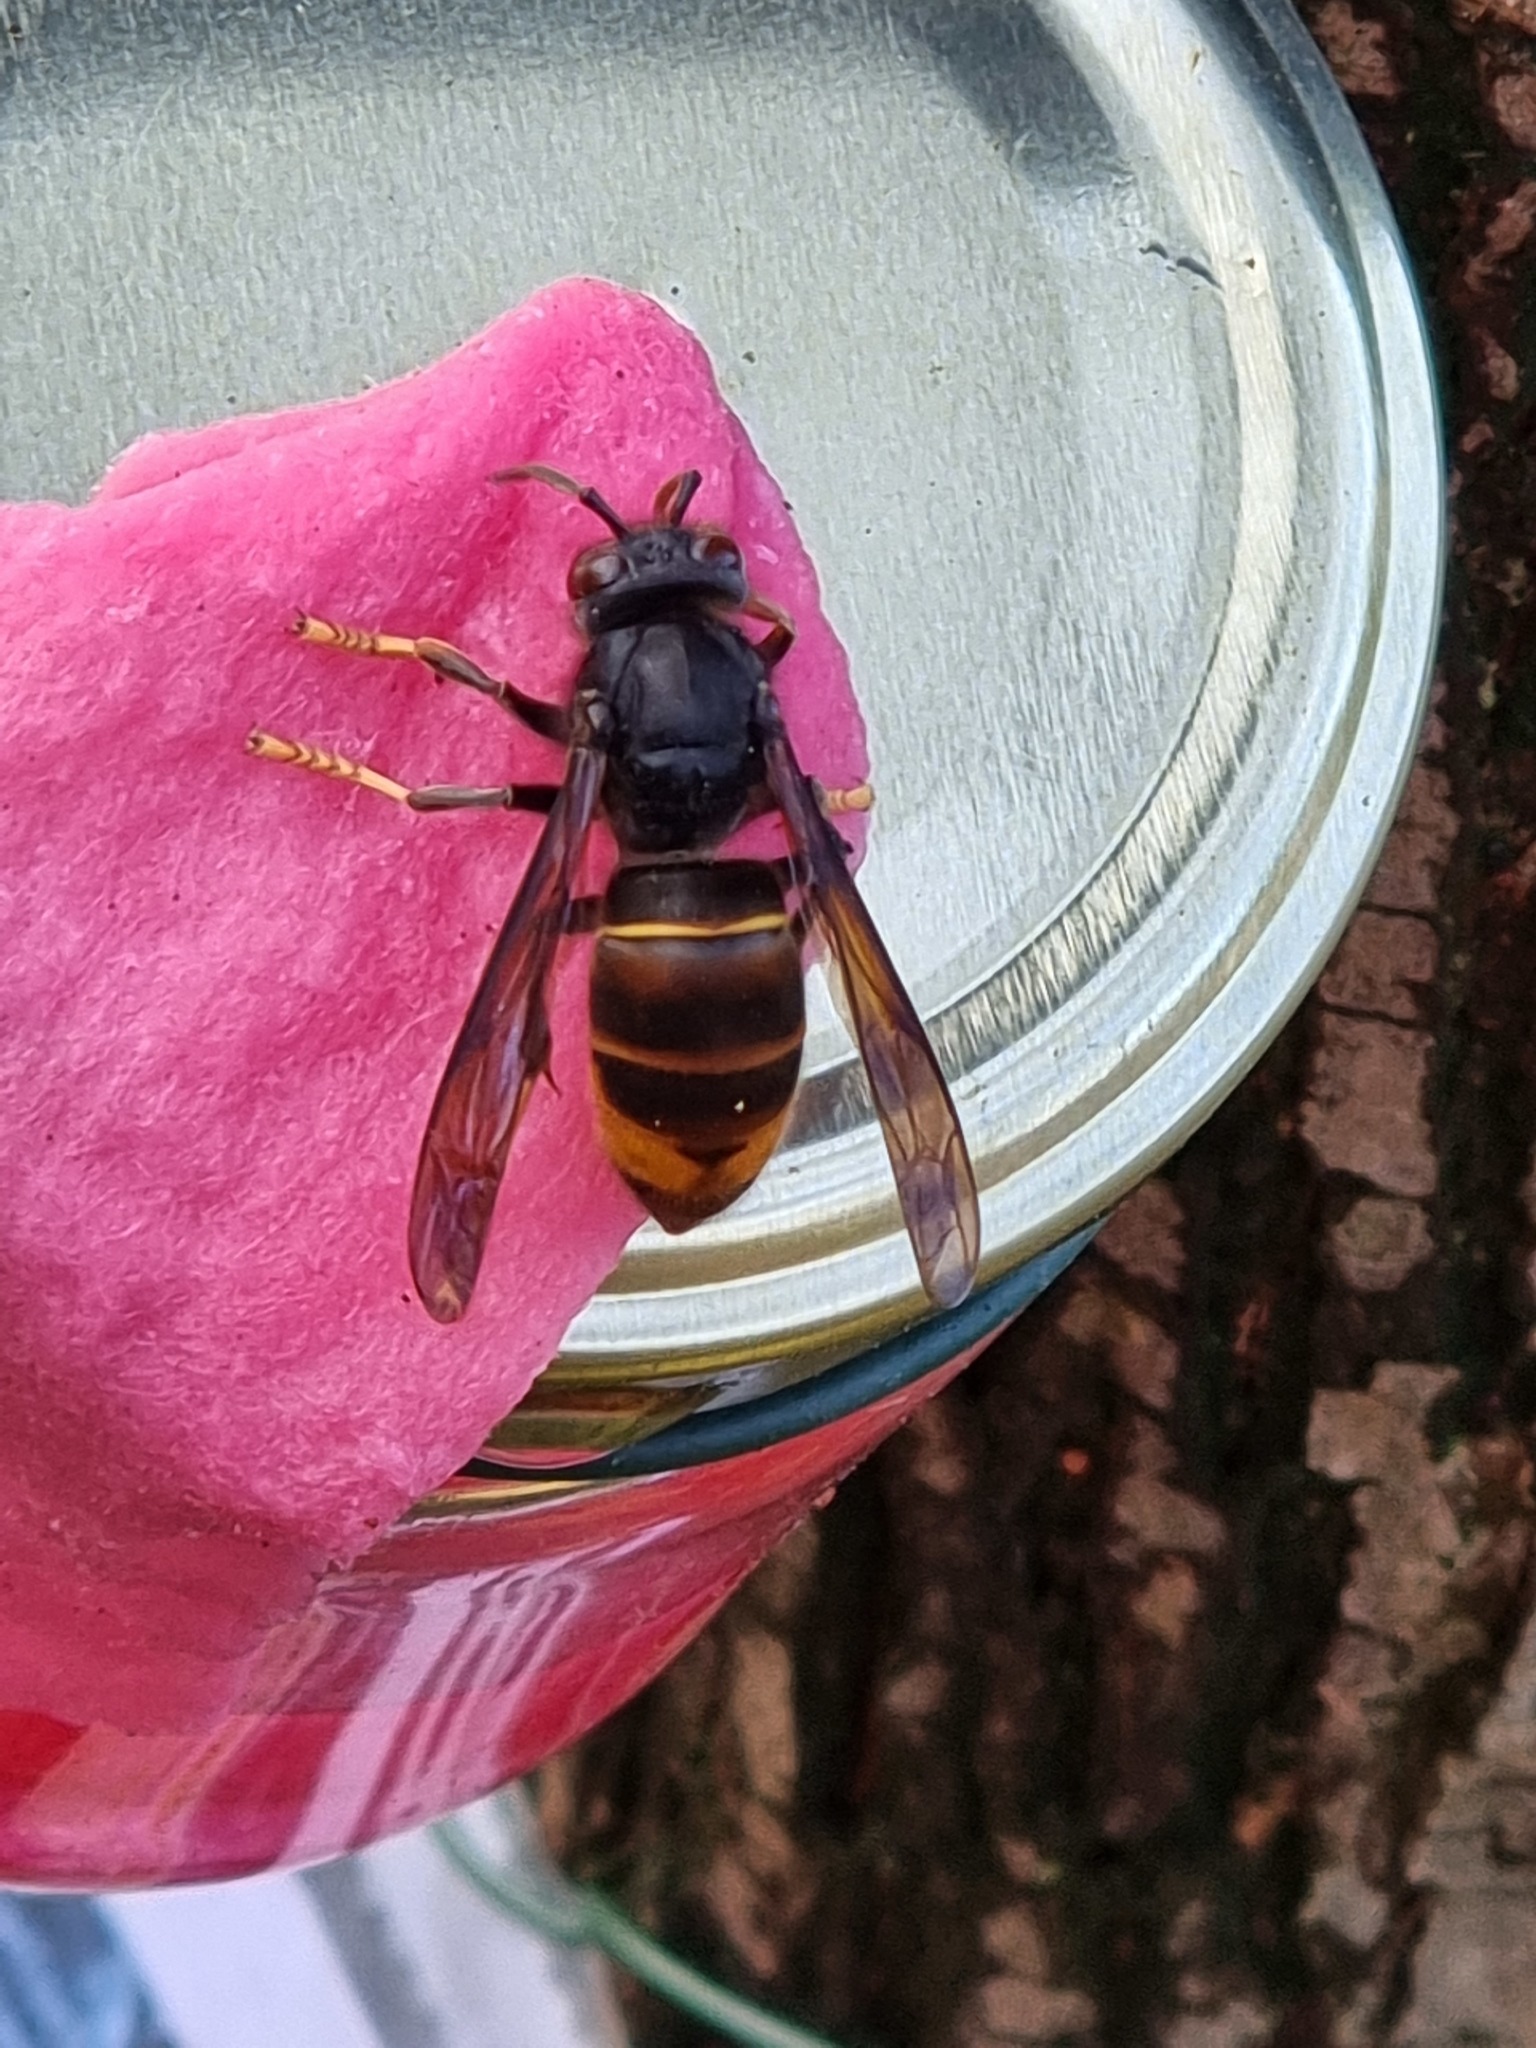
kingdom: Animalia
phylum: Arthropoda
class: Insecta
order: Hymenoptera
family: Vespidae
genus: Vespa
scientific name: Vespa velutina
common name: Asian hornet
